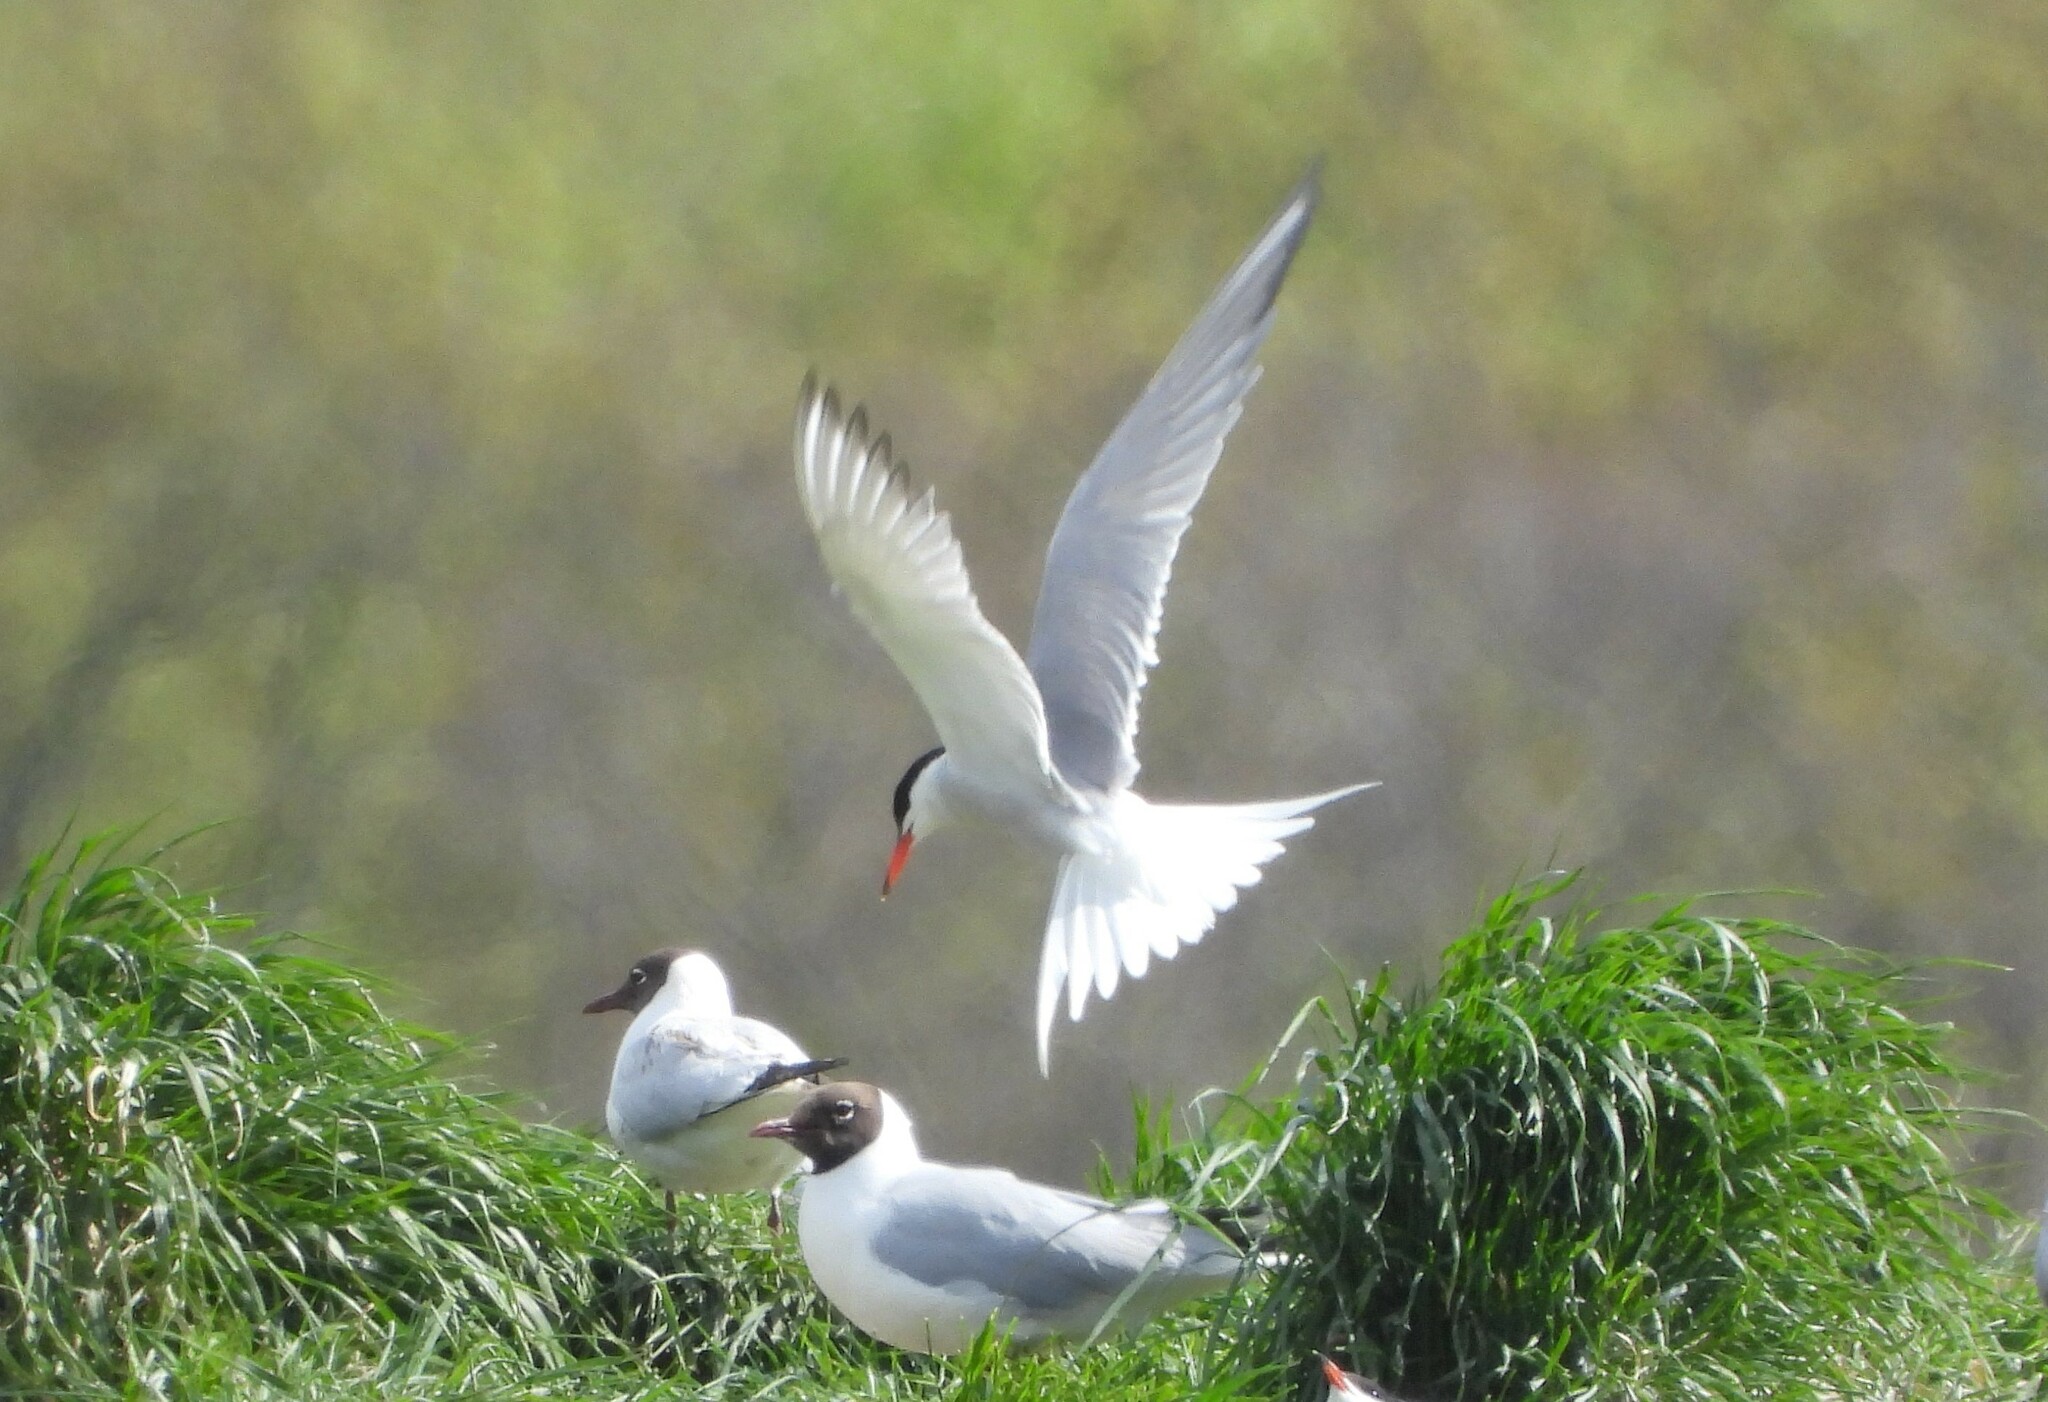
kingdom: Animalia
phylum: Chordata
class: Aves
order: Charadriiformes
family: Laridae
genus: Sterna
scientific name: Sterna hirundo
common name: Common tern
